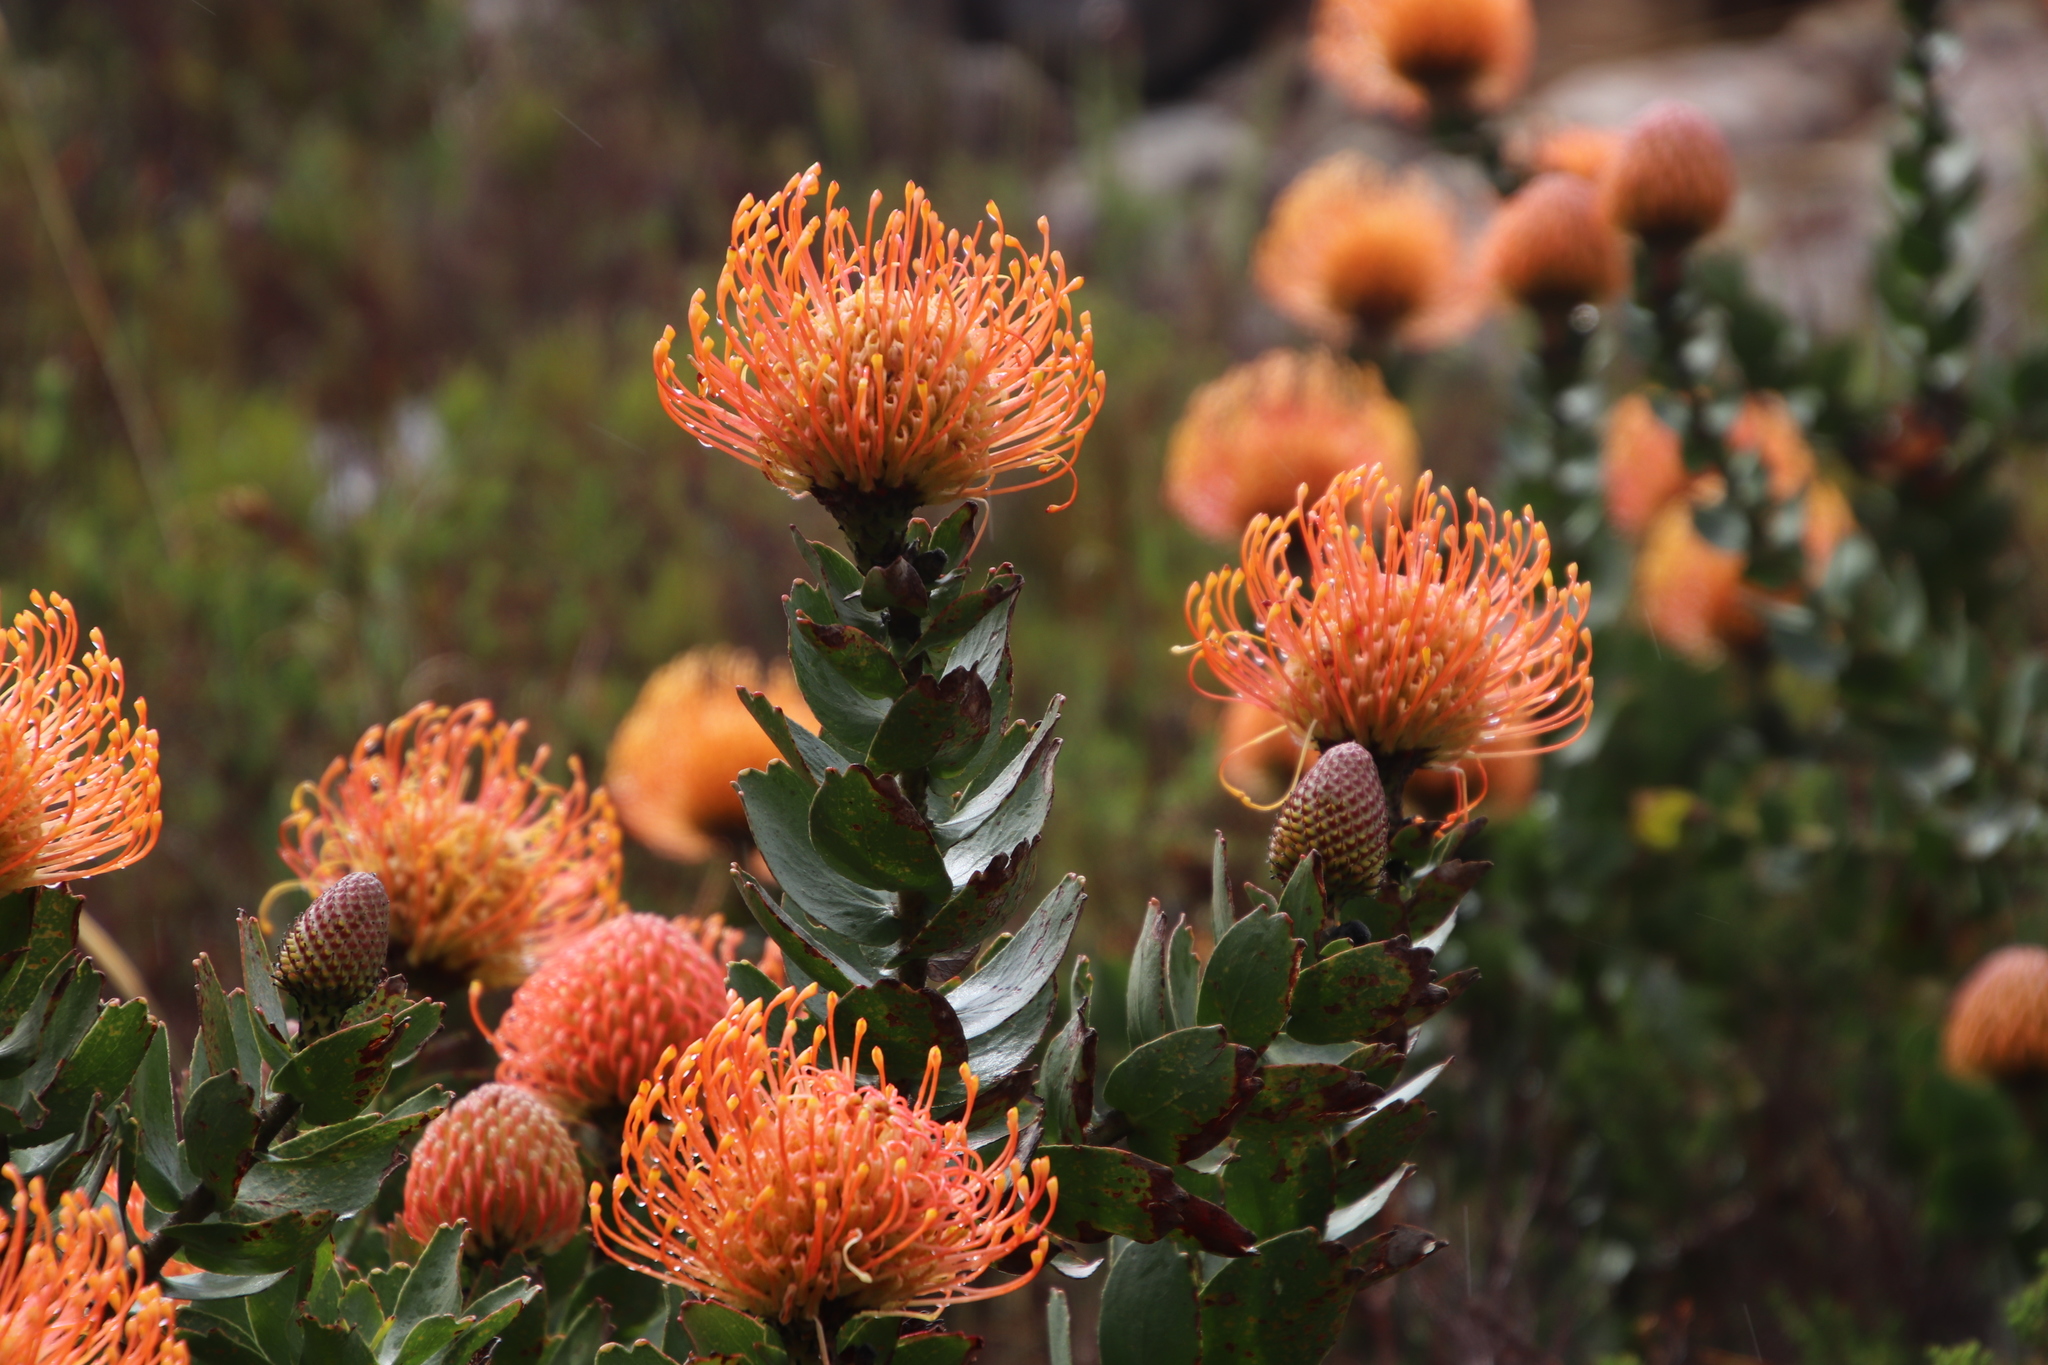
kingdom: Plantae
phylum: Tracheophyta
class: Magnoliopsida
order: Proteales
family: Proteaceae
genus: Leucospermum
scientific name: Leucospermum cordifolium
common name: Red pincushion-protea
